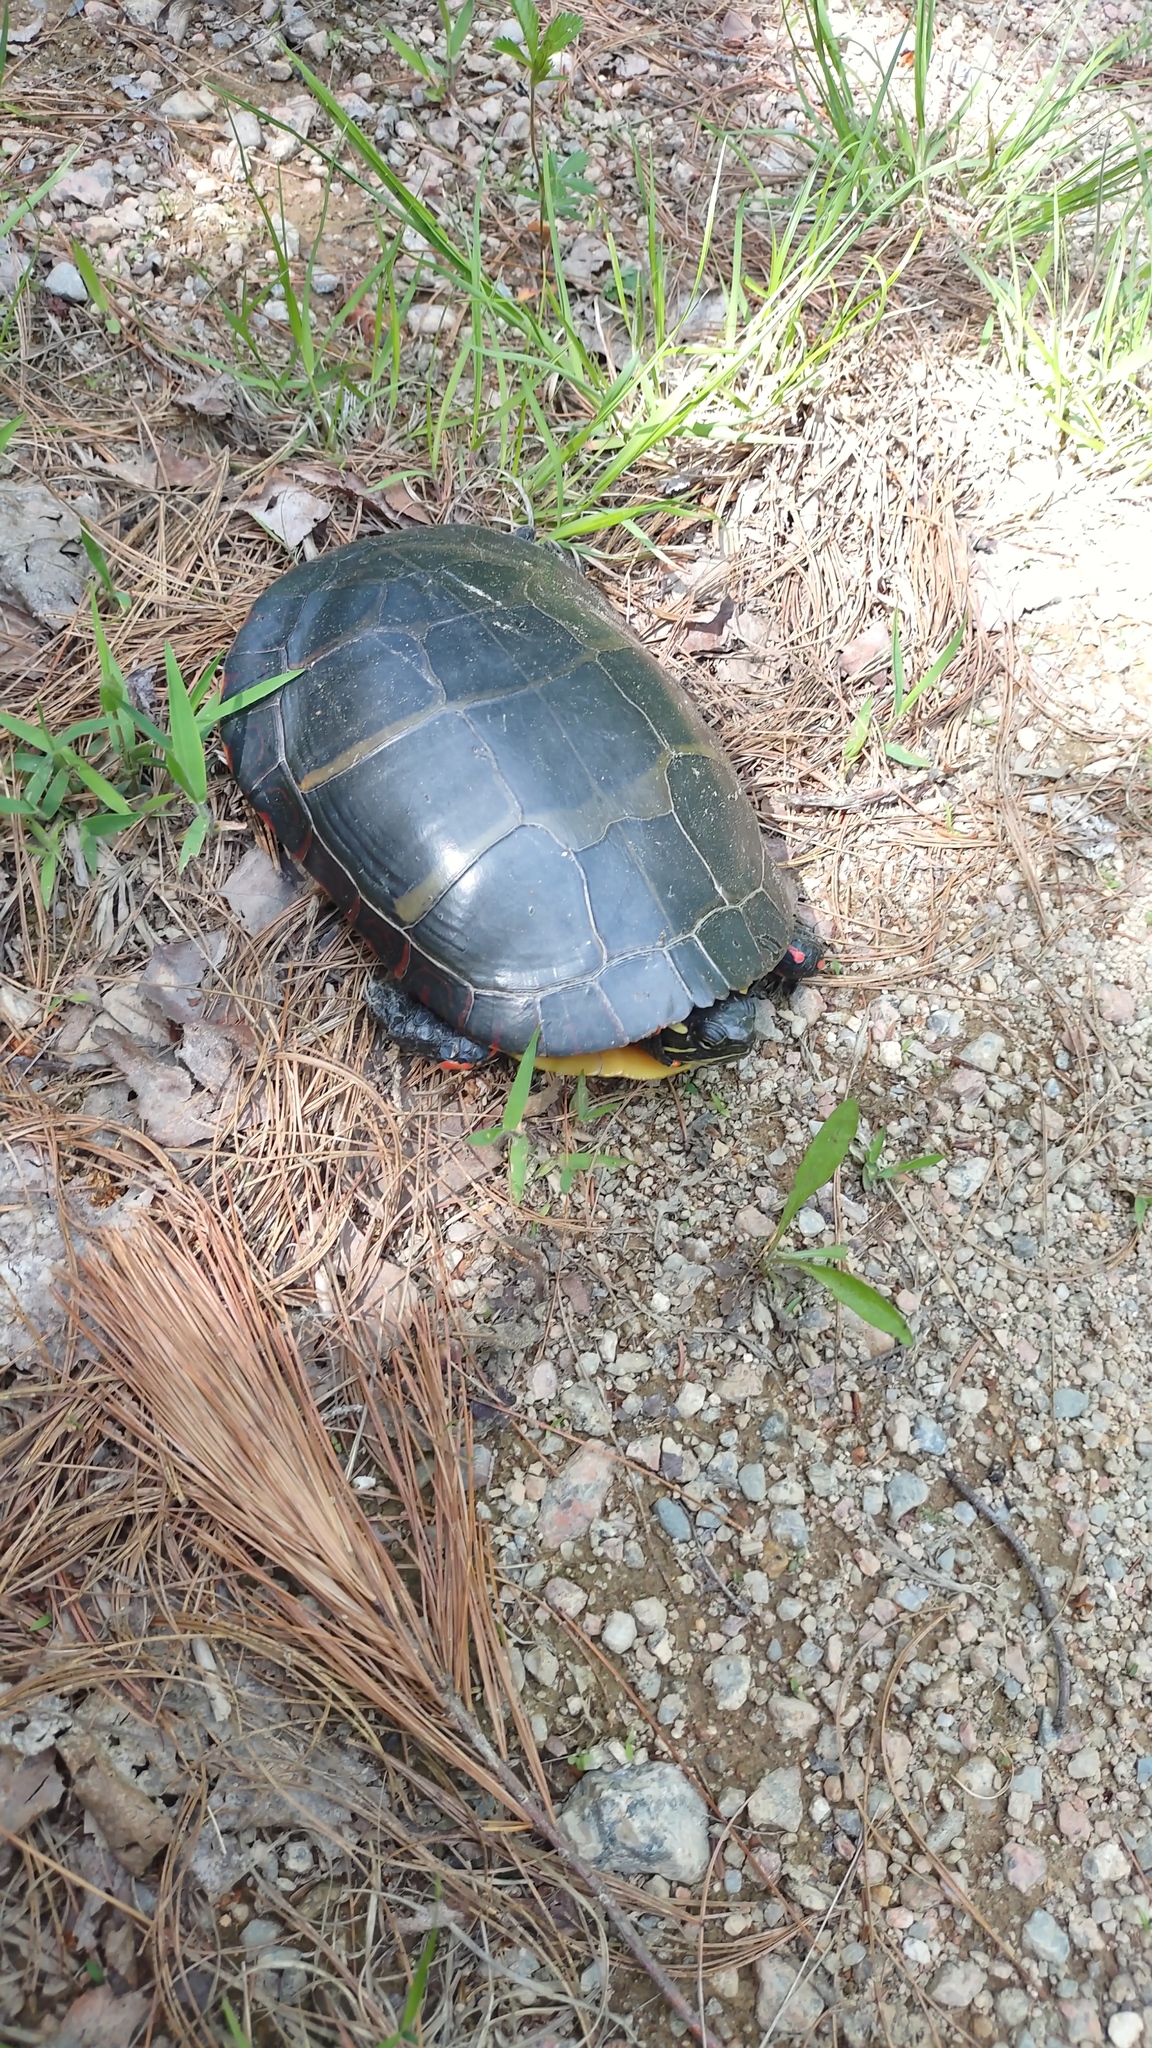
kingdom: Animalia
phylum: Chordata
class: Testudines
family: Emydidae
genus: Chrysemys
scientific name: Chrysemys picta
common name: Painted turtle
